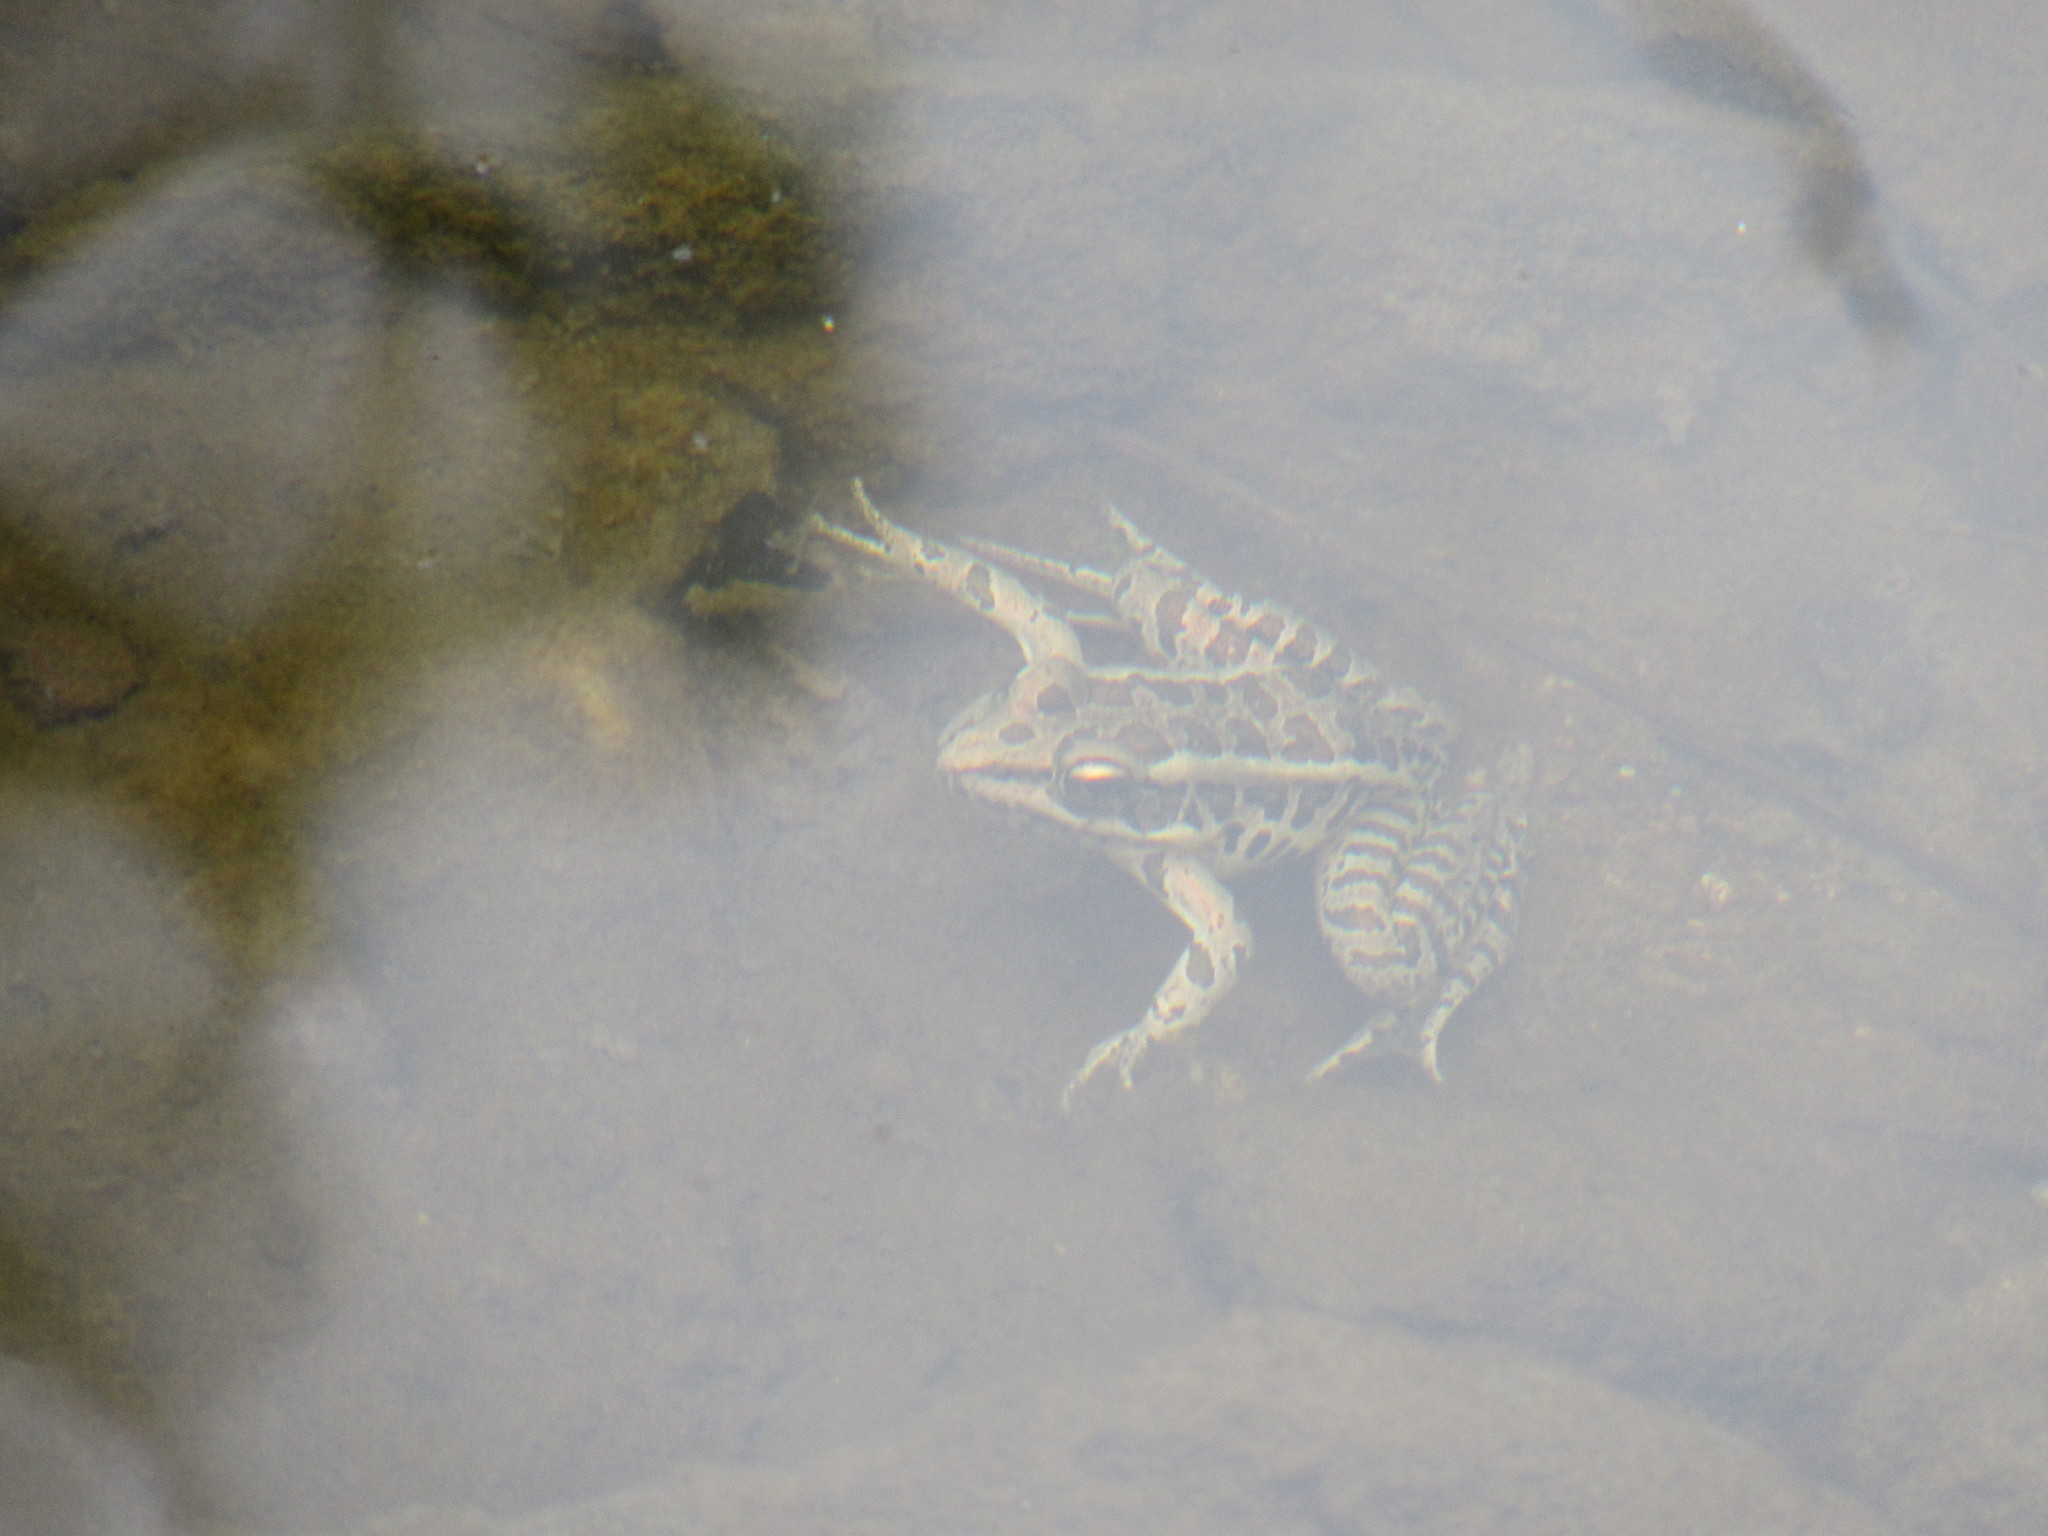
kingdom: Animalia
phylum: Chordata
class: Amphibia
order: Anura
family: Ranidae
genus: Lithobates
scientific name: Lithobates palustris
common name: Pickerel frog
